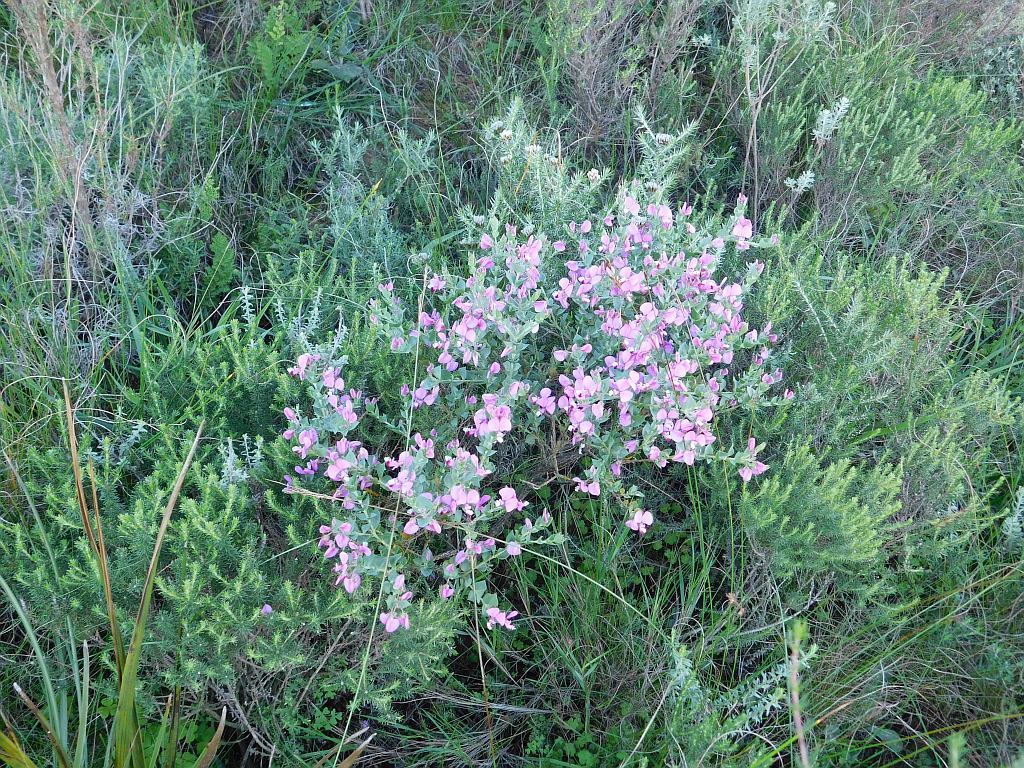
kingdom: Plantae
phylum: Tracheophyta
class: Magnoliopsida
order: Fabales
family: Polygalaceae
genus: Polygala
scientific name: Polygala fruticosa
